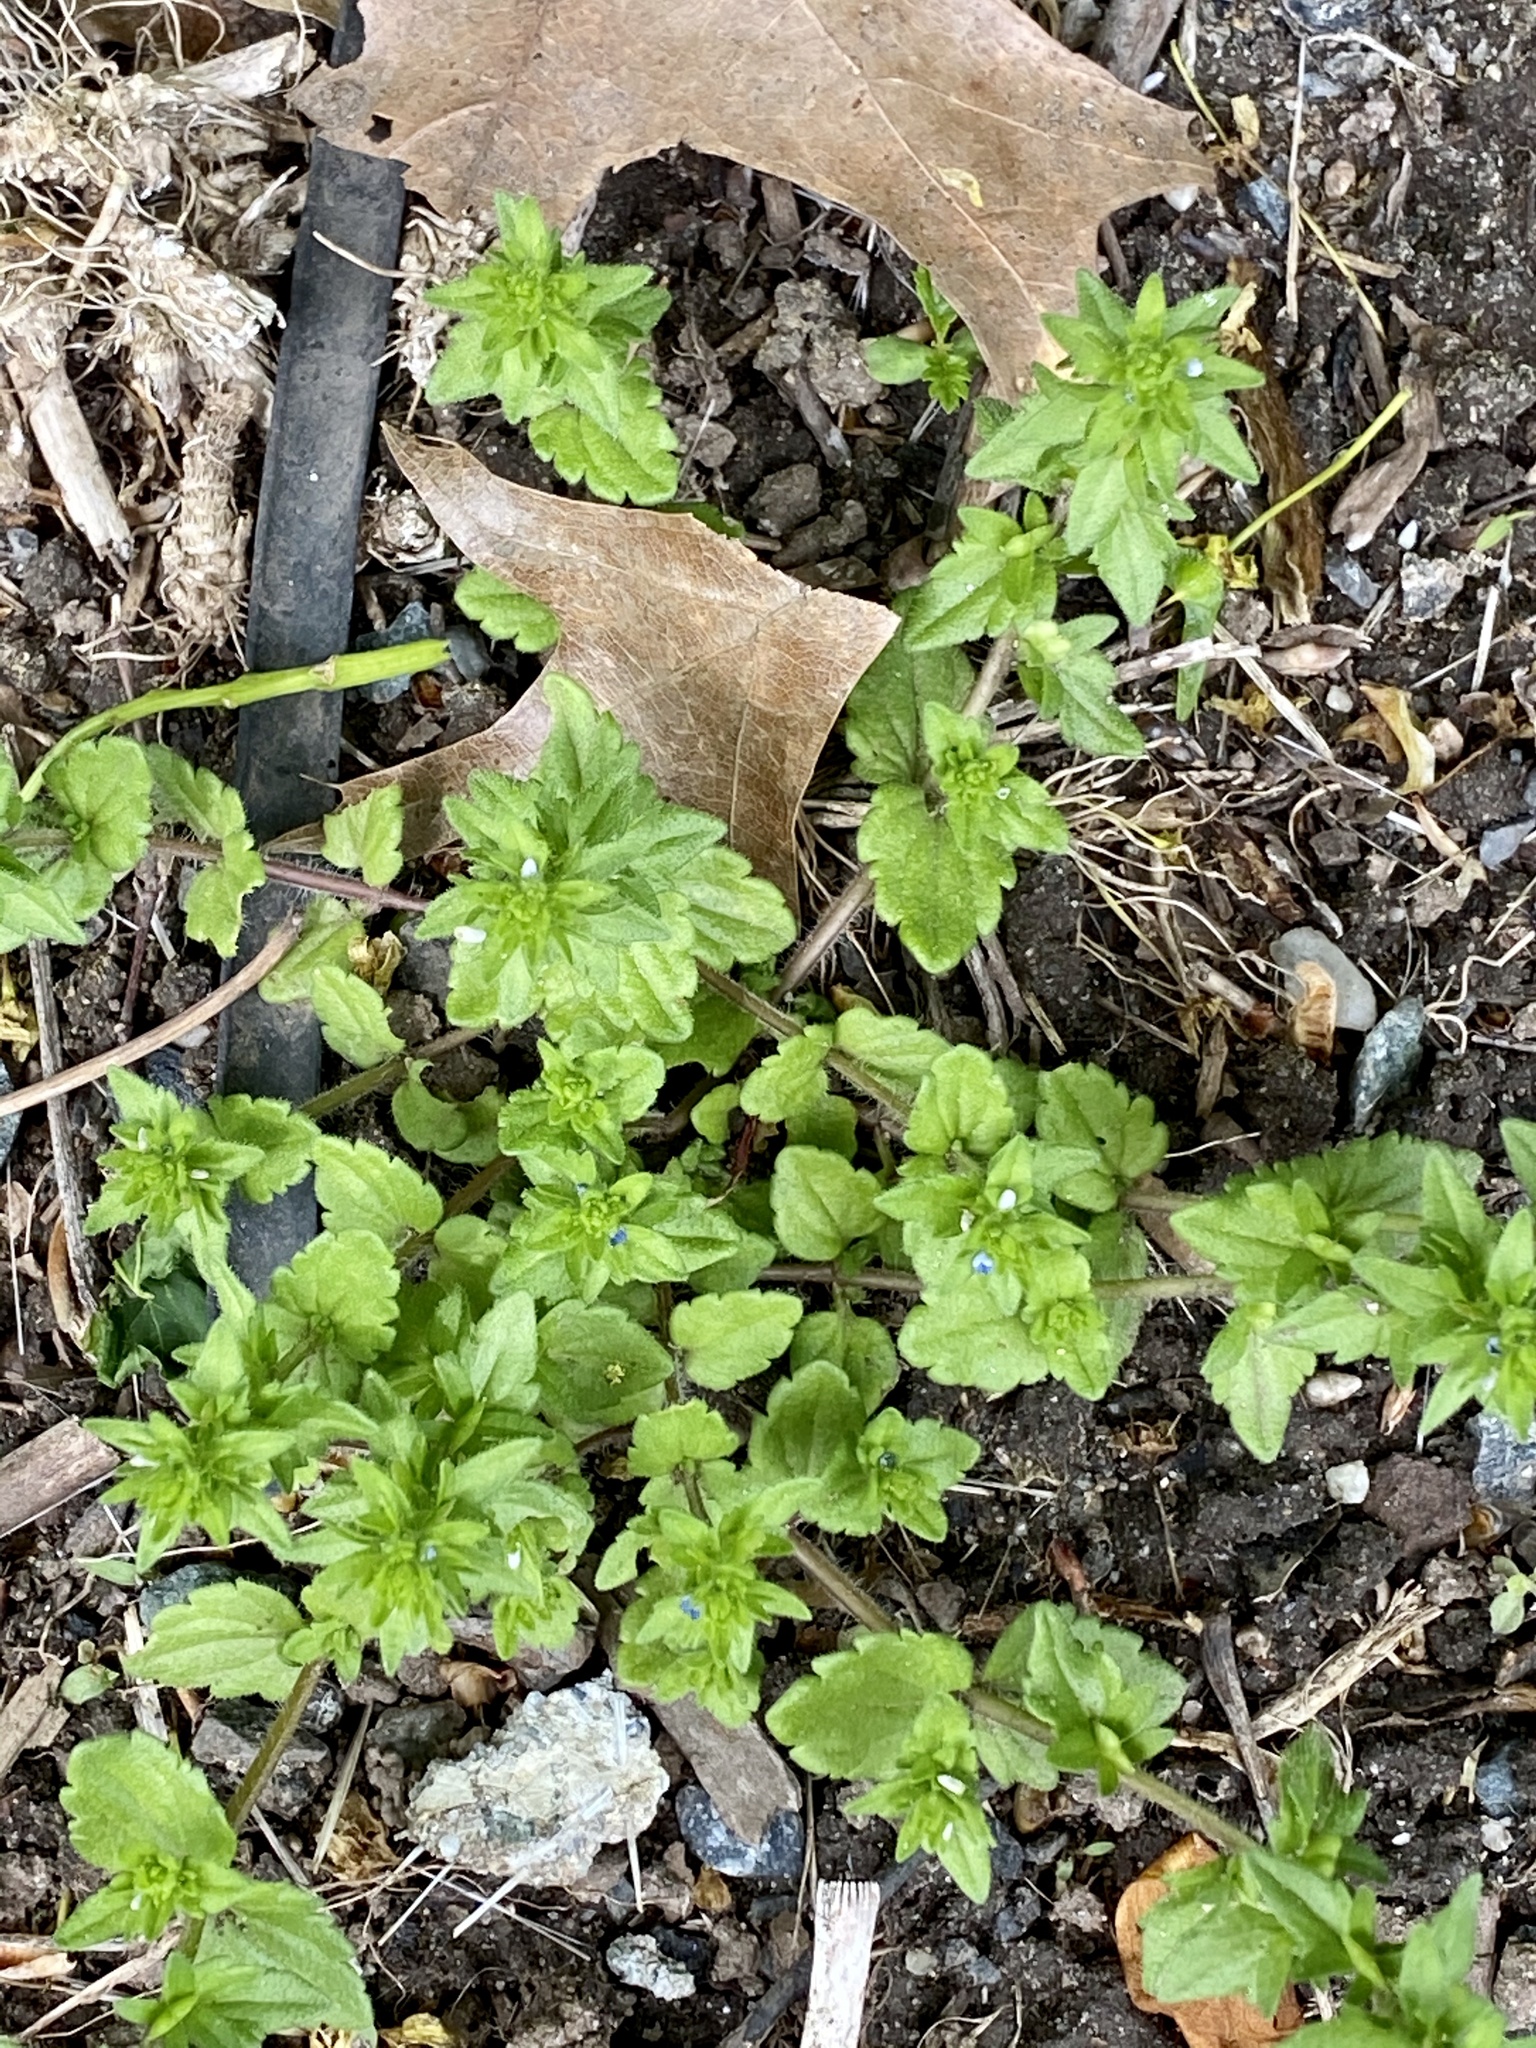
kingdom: Plantae
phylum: Tracheophyta
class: Magnoliopsida
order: Lamiales
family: Plantaginaceae
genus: Veronica
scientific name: Veronica arvensis
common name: Corn speedwell
